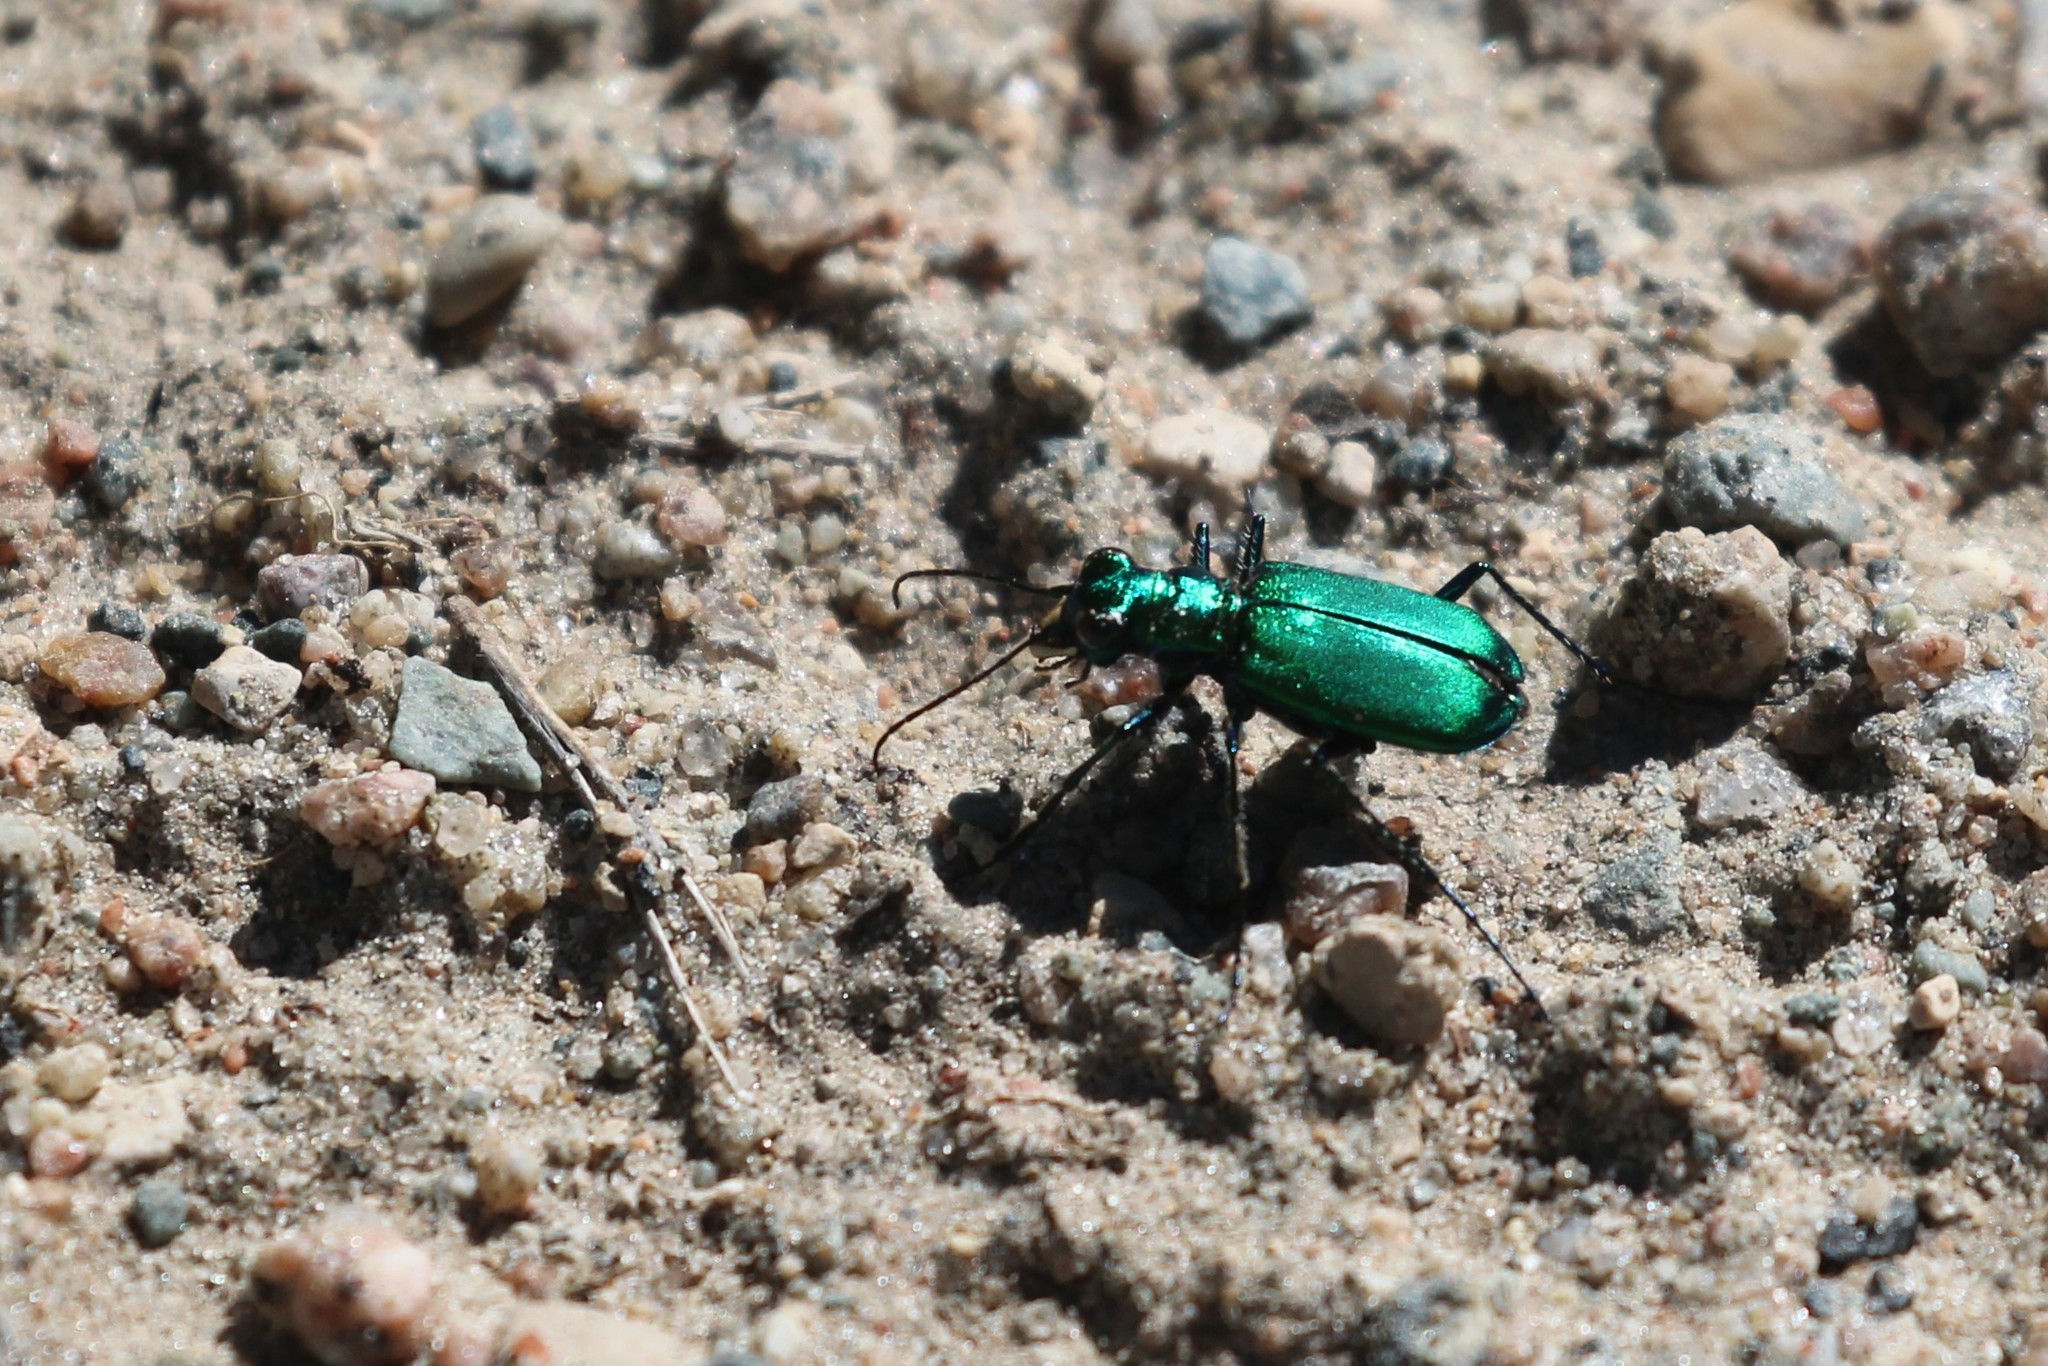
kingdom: Animalia
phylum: Arthropoda
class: Insecta
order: Coleoptera
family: Carabidae
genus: Cicindela
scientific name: Cicindela denikei
